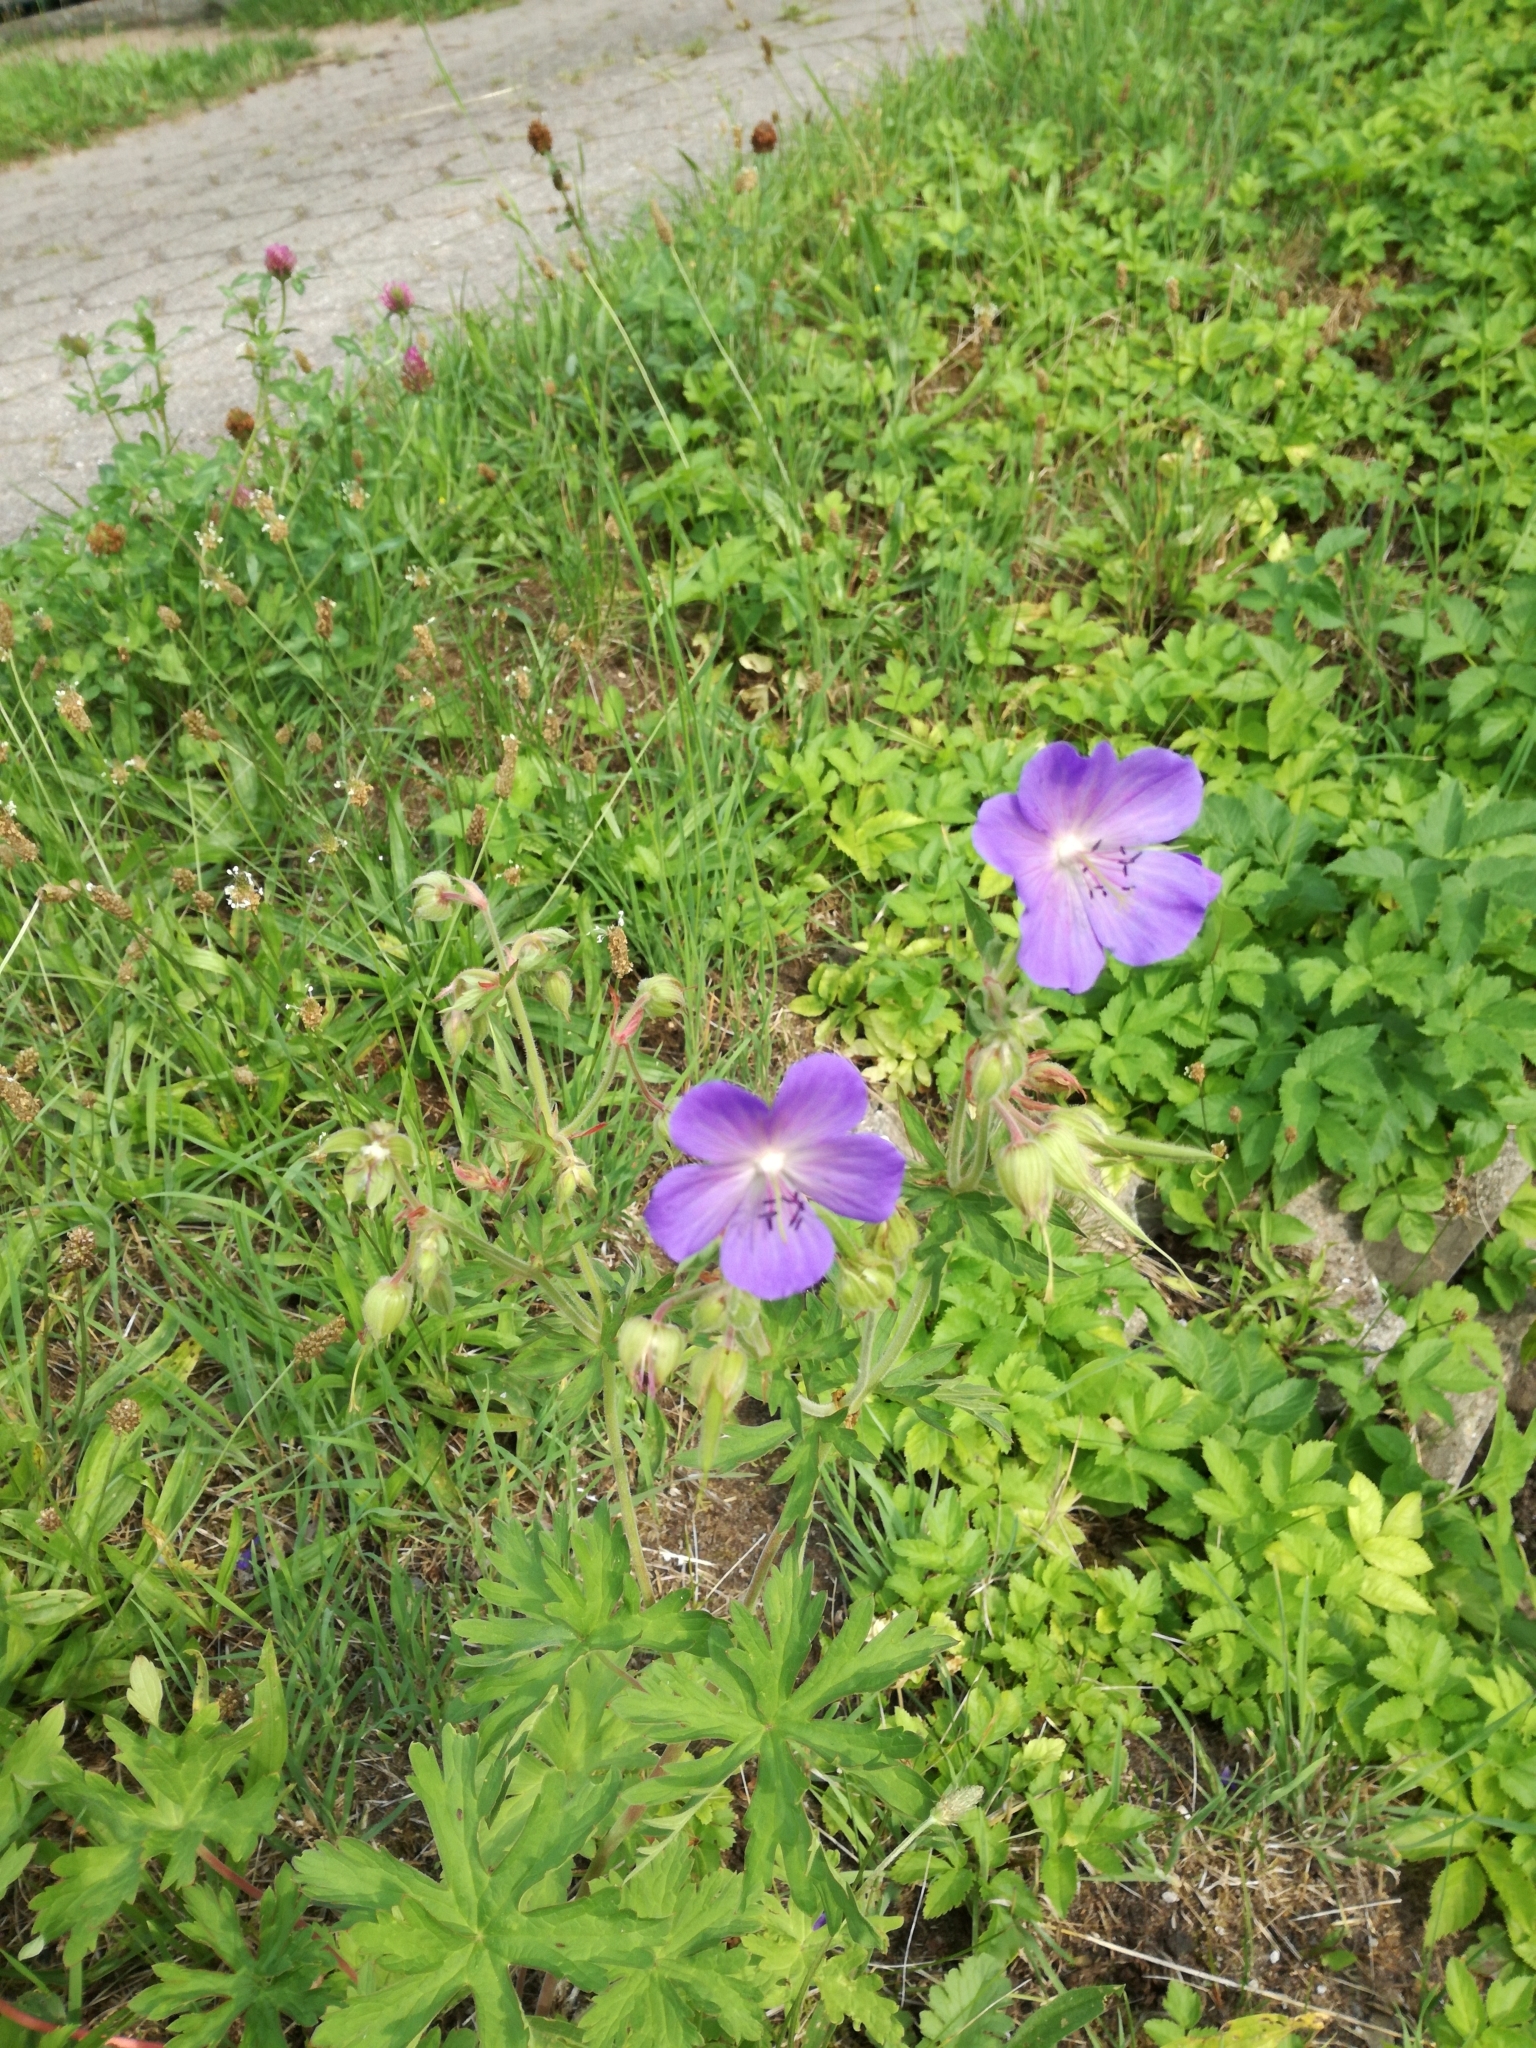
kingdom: Plantae
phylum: Tracheophyta
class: Magnoliopsida
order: Geraniales
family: Geraniaceae
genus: Geranium
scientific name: Geranium pratense
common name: Meadow crane's-bill
